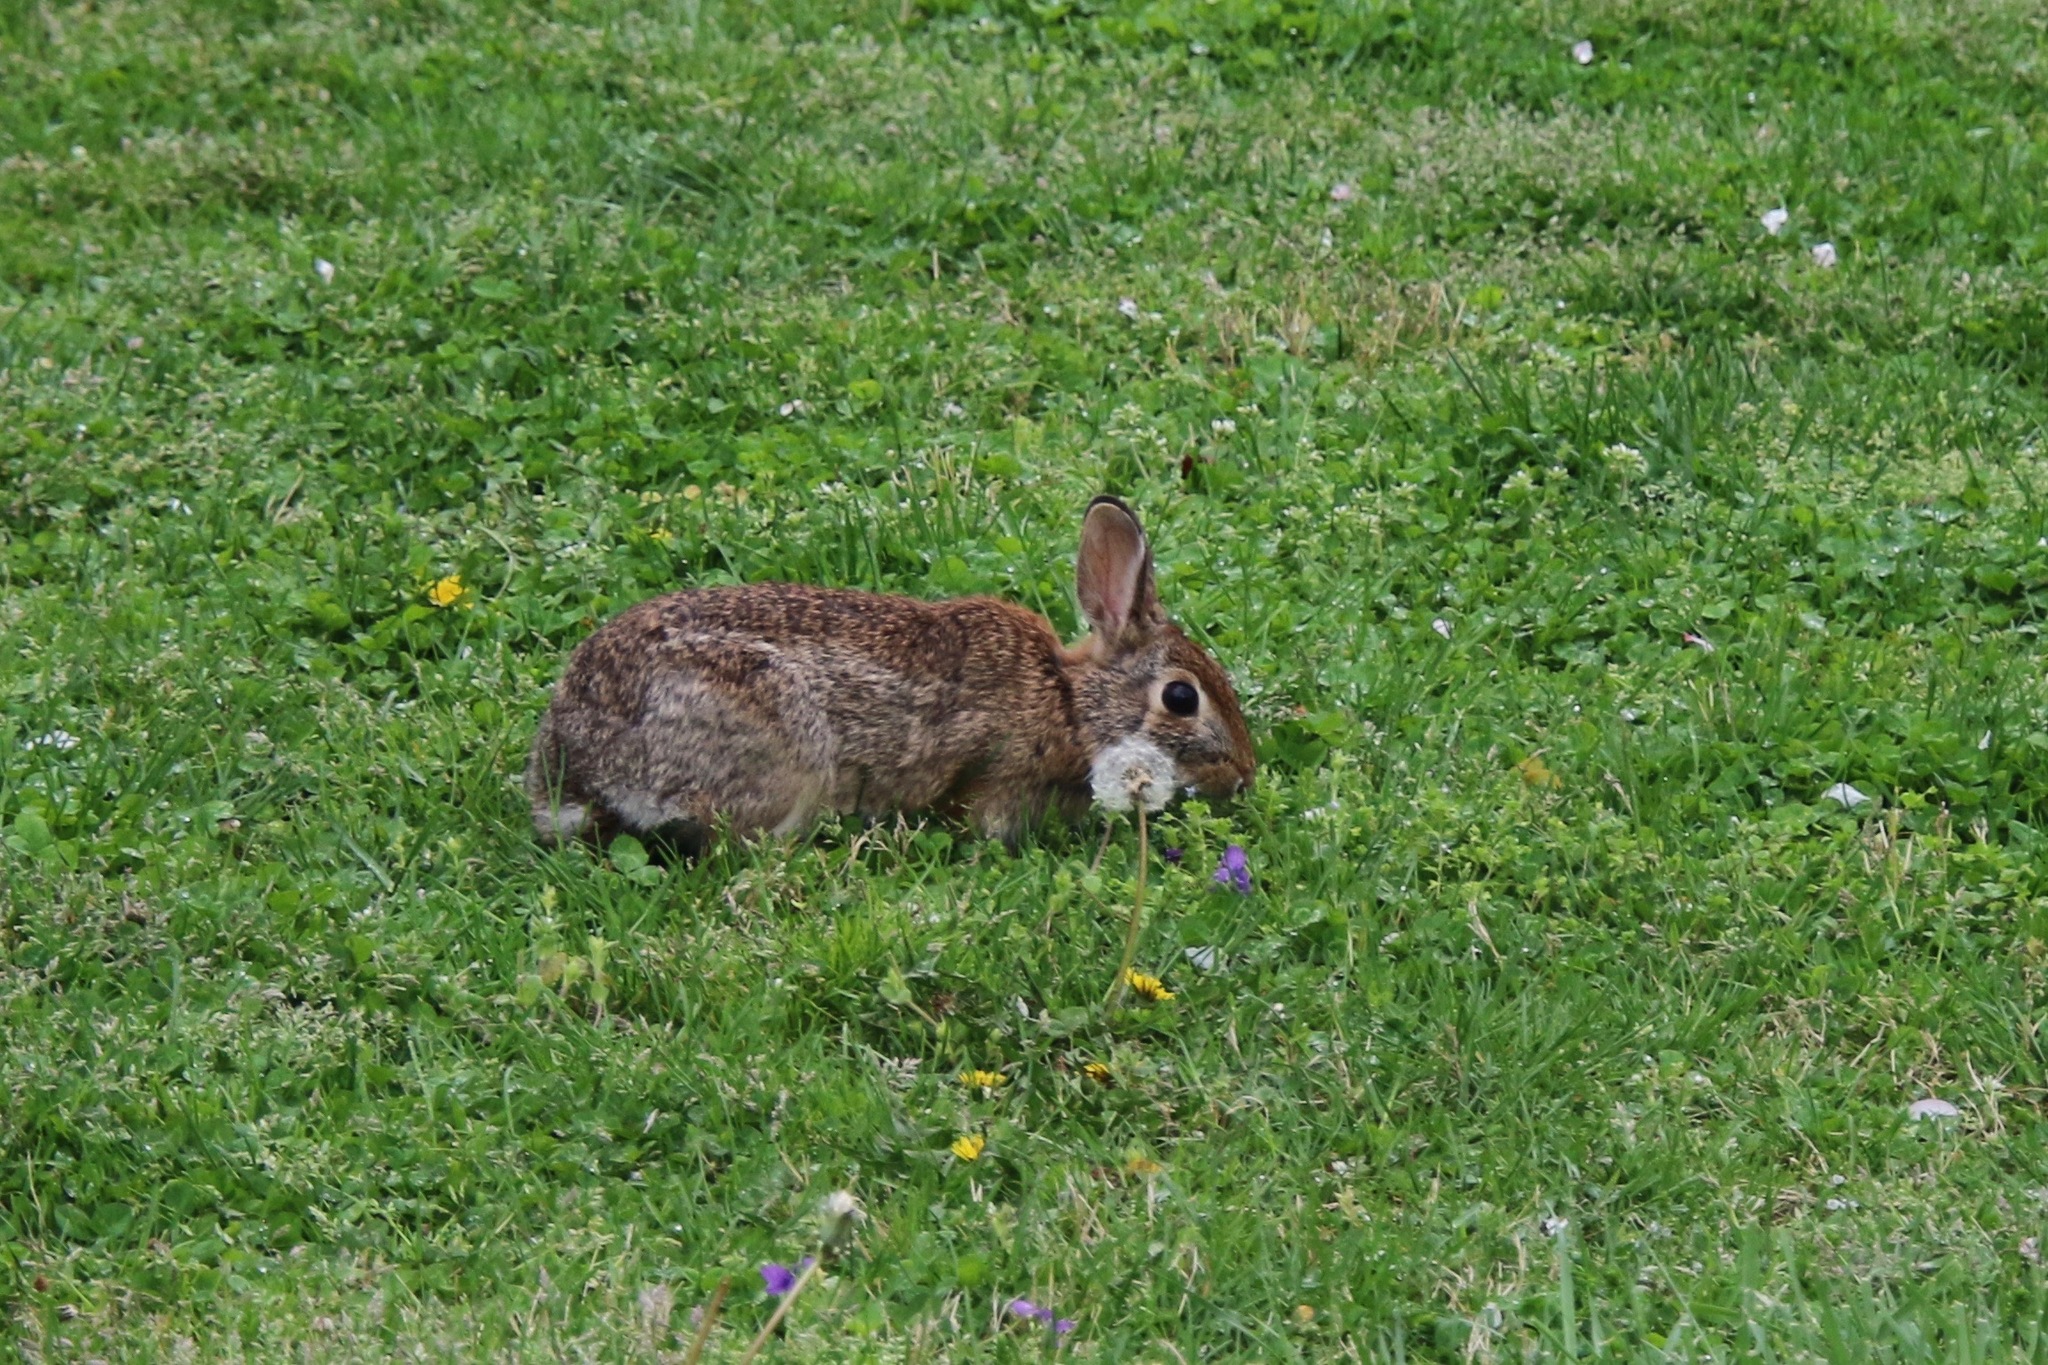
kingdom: Animalia
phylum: Chordata
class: Mammalia
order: Lagomorpha
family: Leporidae
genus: Sylvilagus
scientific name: Sylvilagus floridanus
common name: Eastern cottontail
